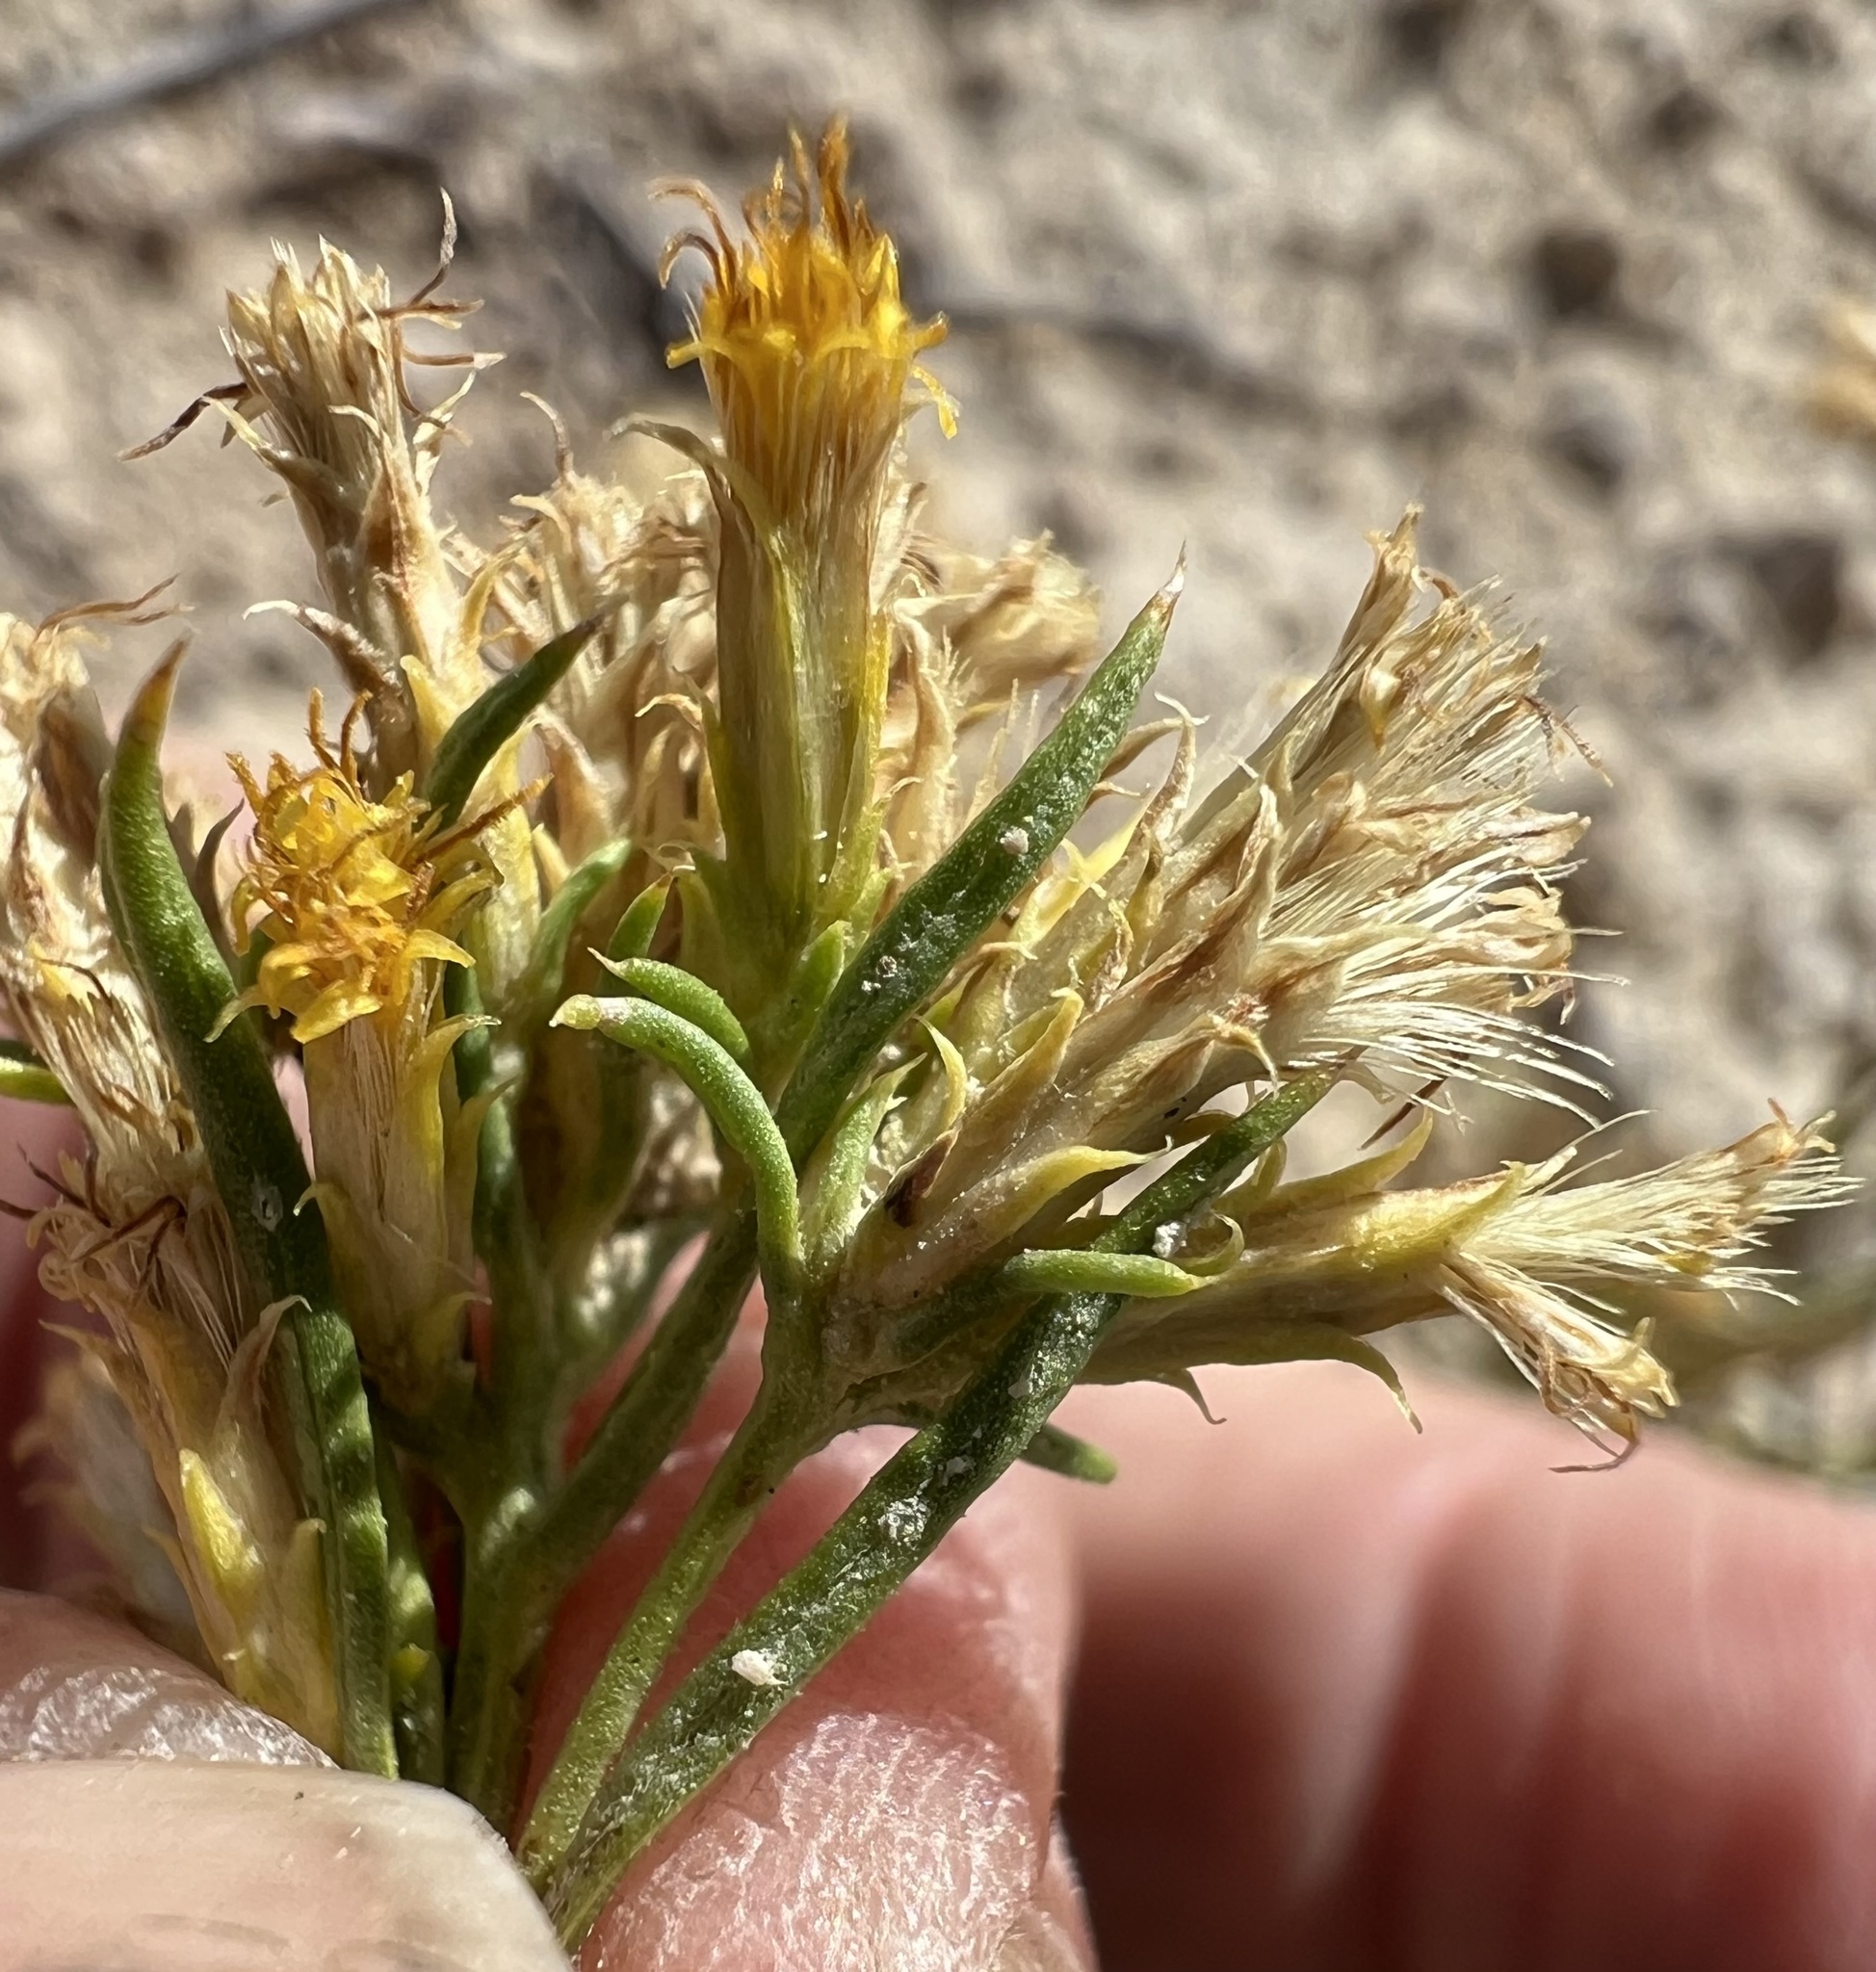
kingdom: Plantae
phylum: Tracheophyta
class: Magnoliopsida
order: Asterales
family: Asteraceae
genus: Chrysothamnus
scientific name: Chrysothamnus greenei
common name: Greene's rabbitbrush
